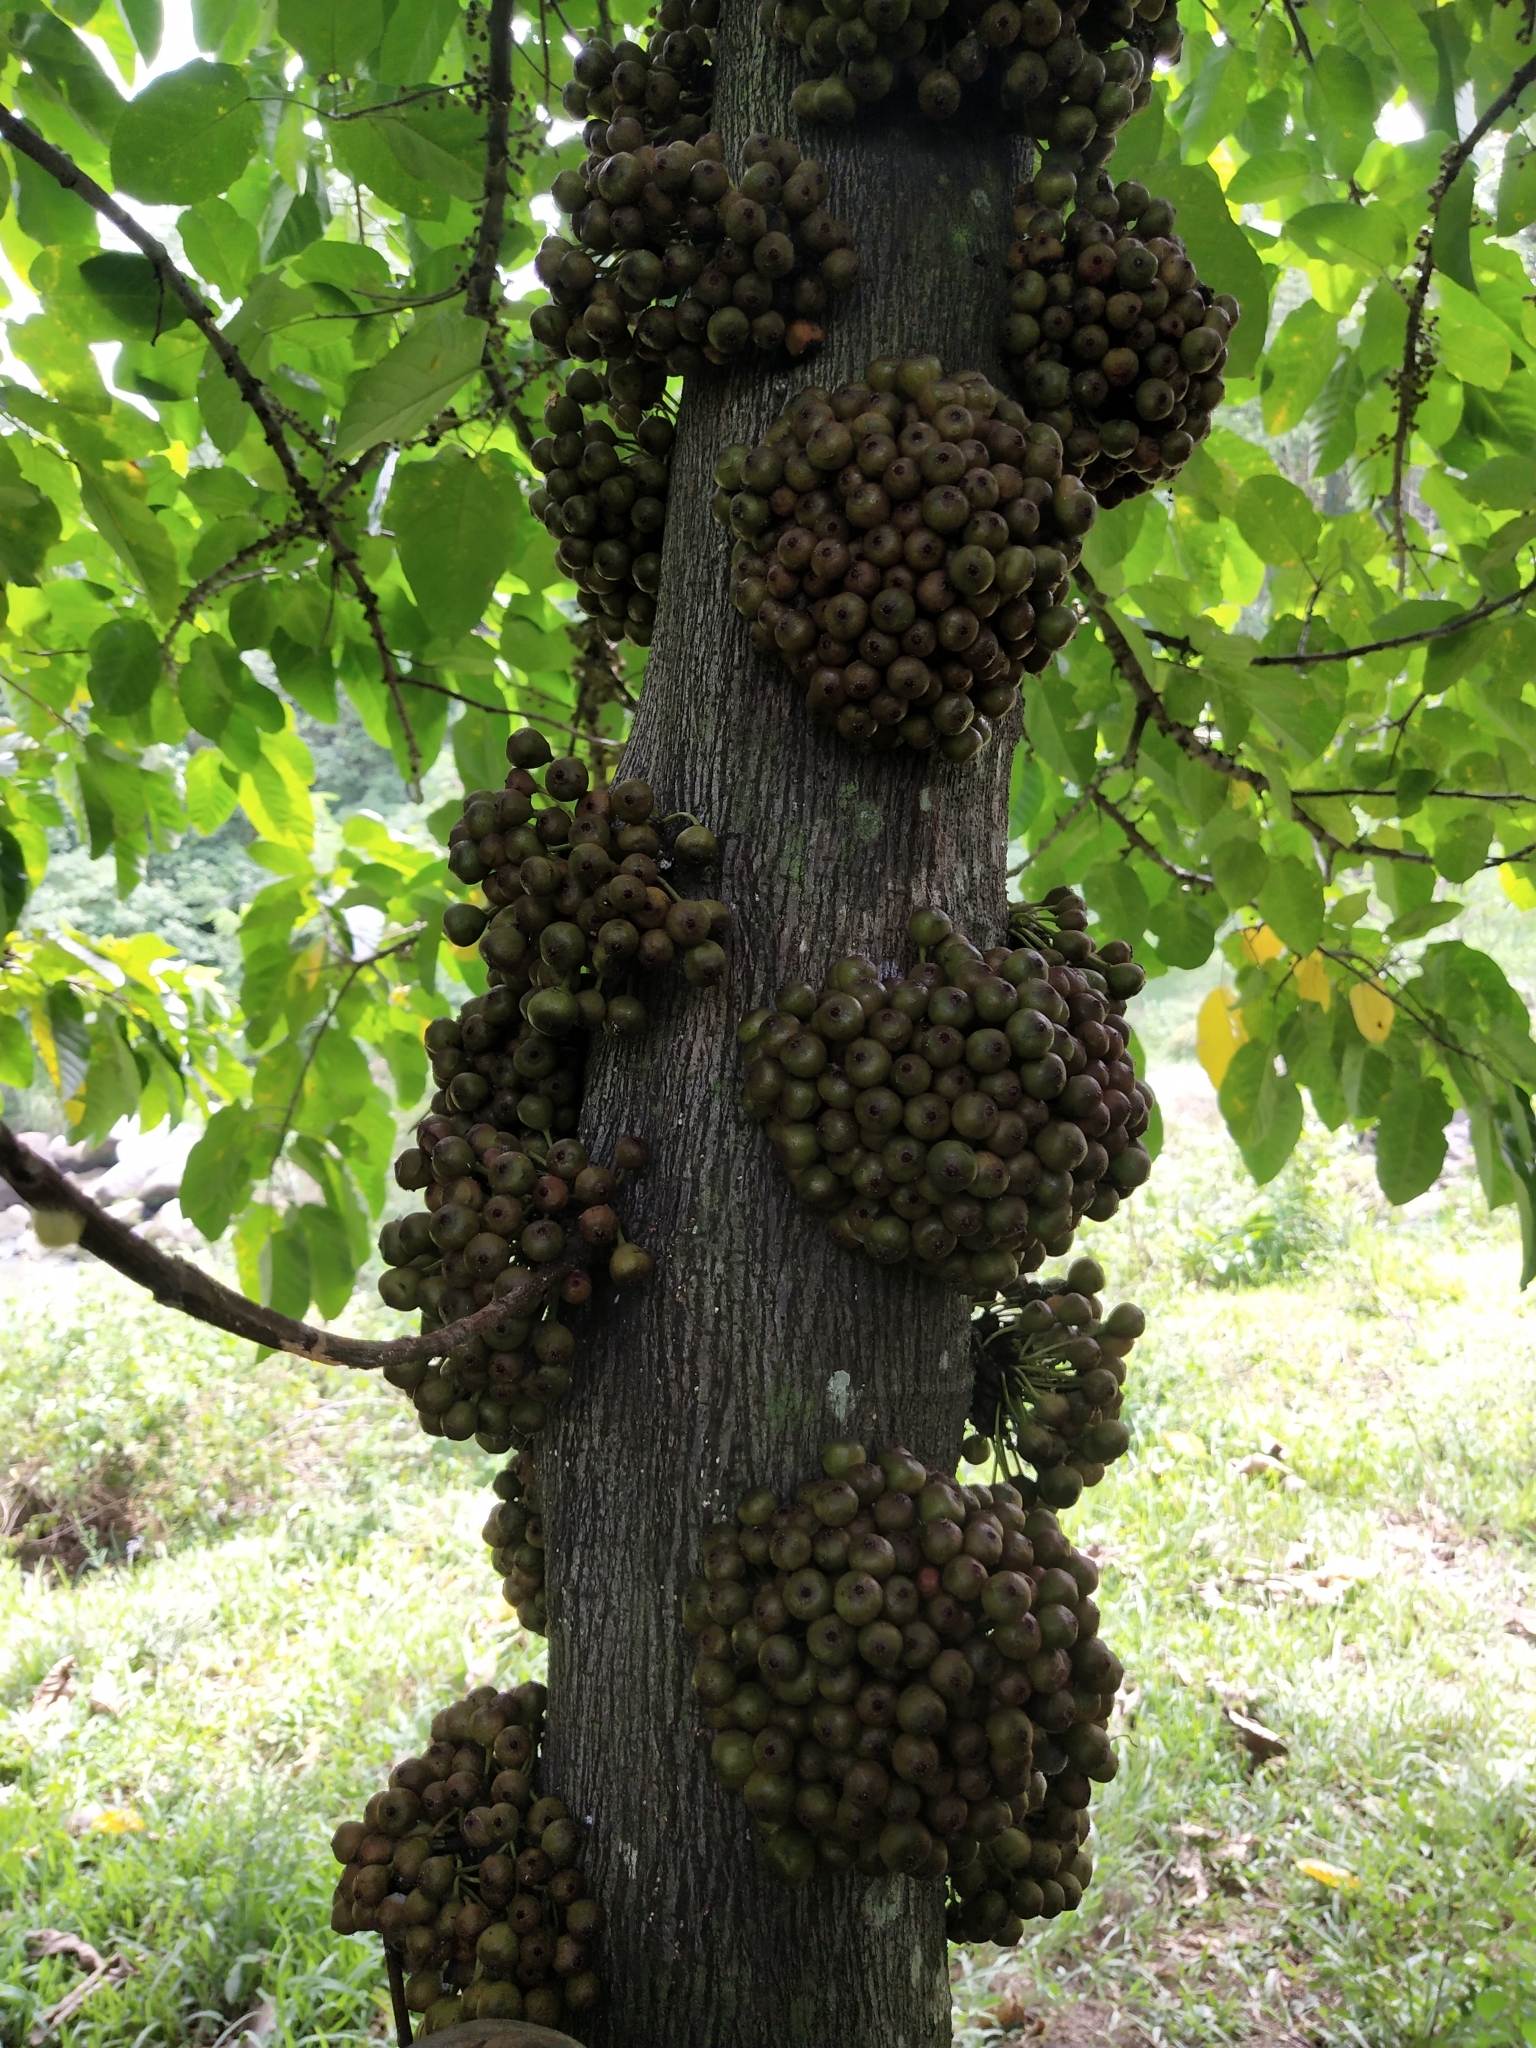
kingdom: Plantae
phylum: Tracheophyta
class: Magnoliopsida
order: Rosales
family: Moraceae
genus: Ficus
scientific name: Ficus heteropoda
